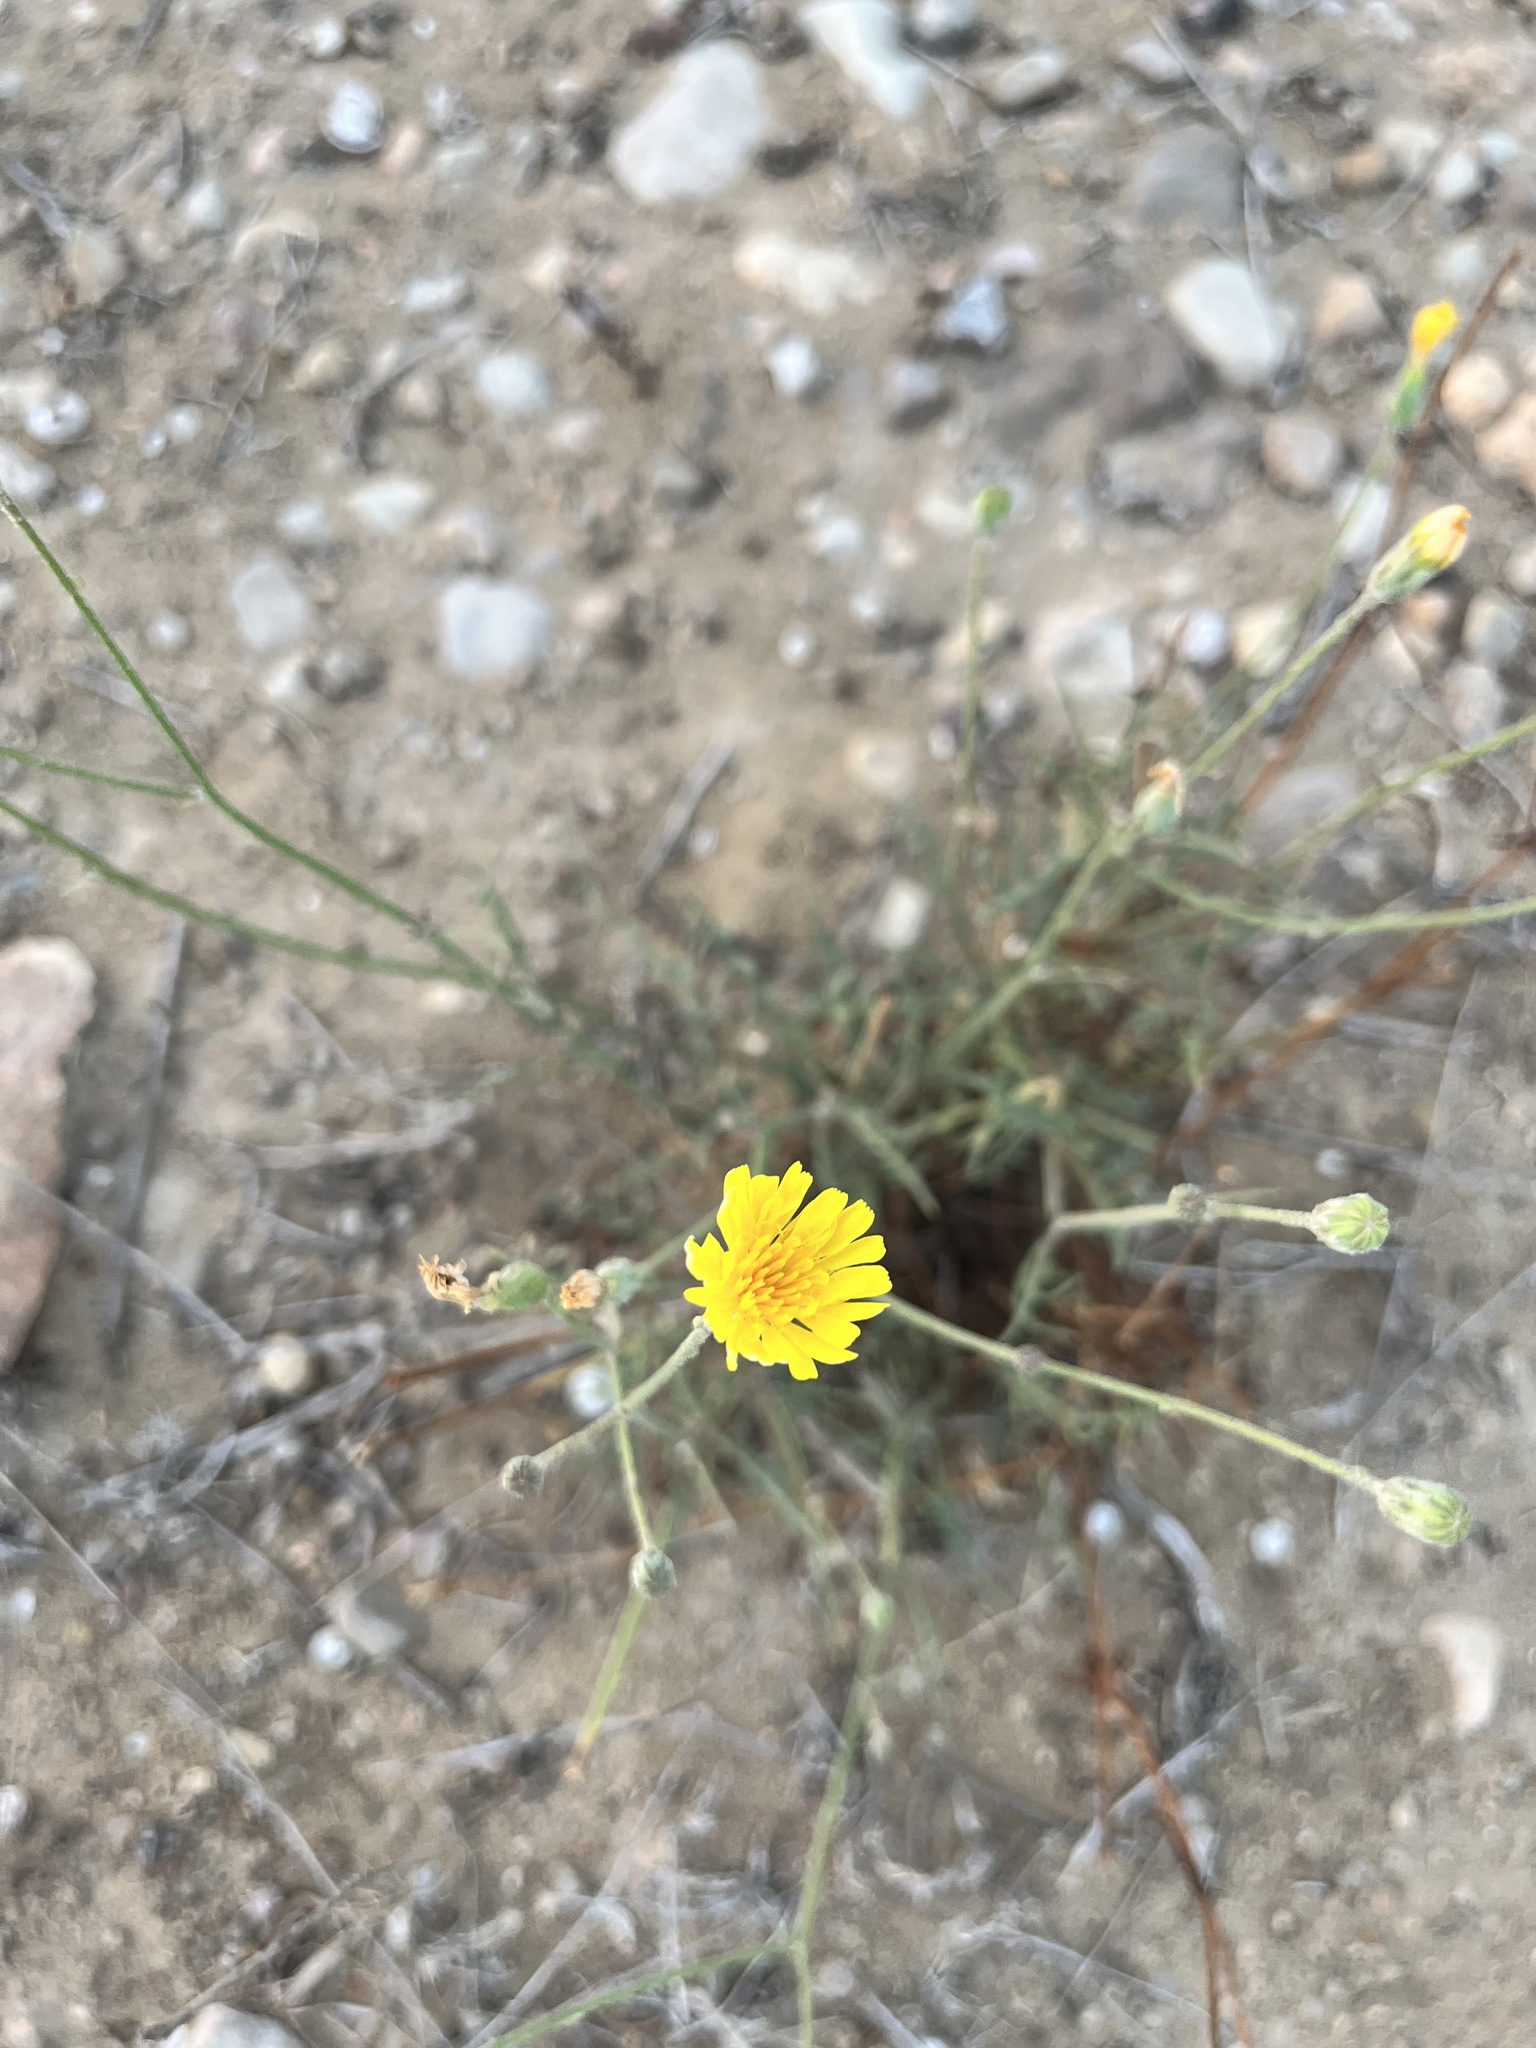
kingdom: Plantae
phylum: Tracheophyta
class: Magnoliopsida
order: Asterales
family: Asteraceae
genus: Sonchus
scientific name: Sonchus tenerrimus
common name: Clammy sowthistle
